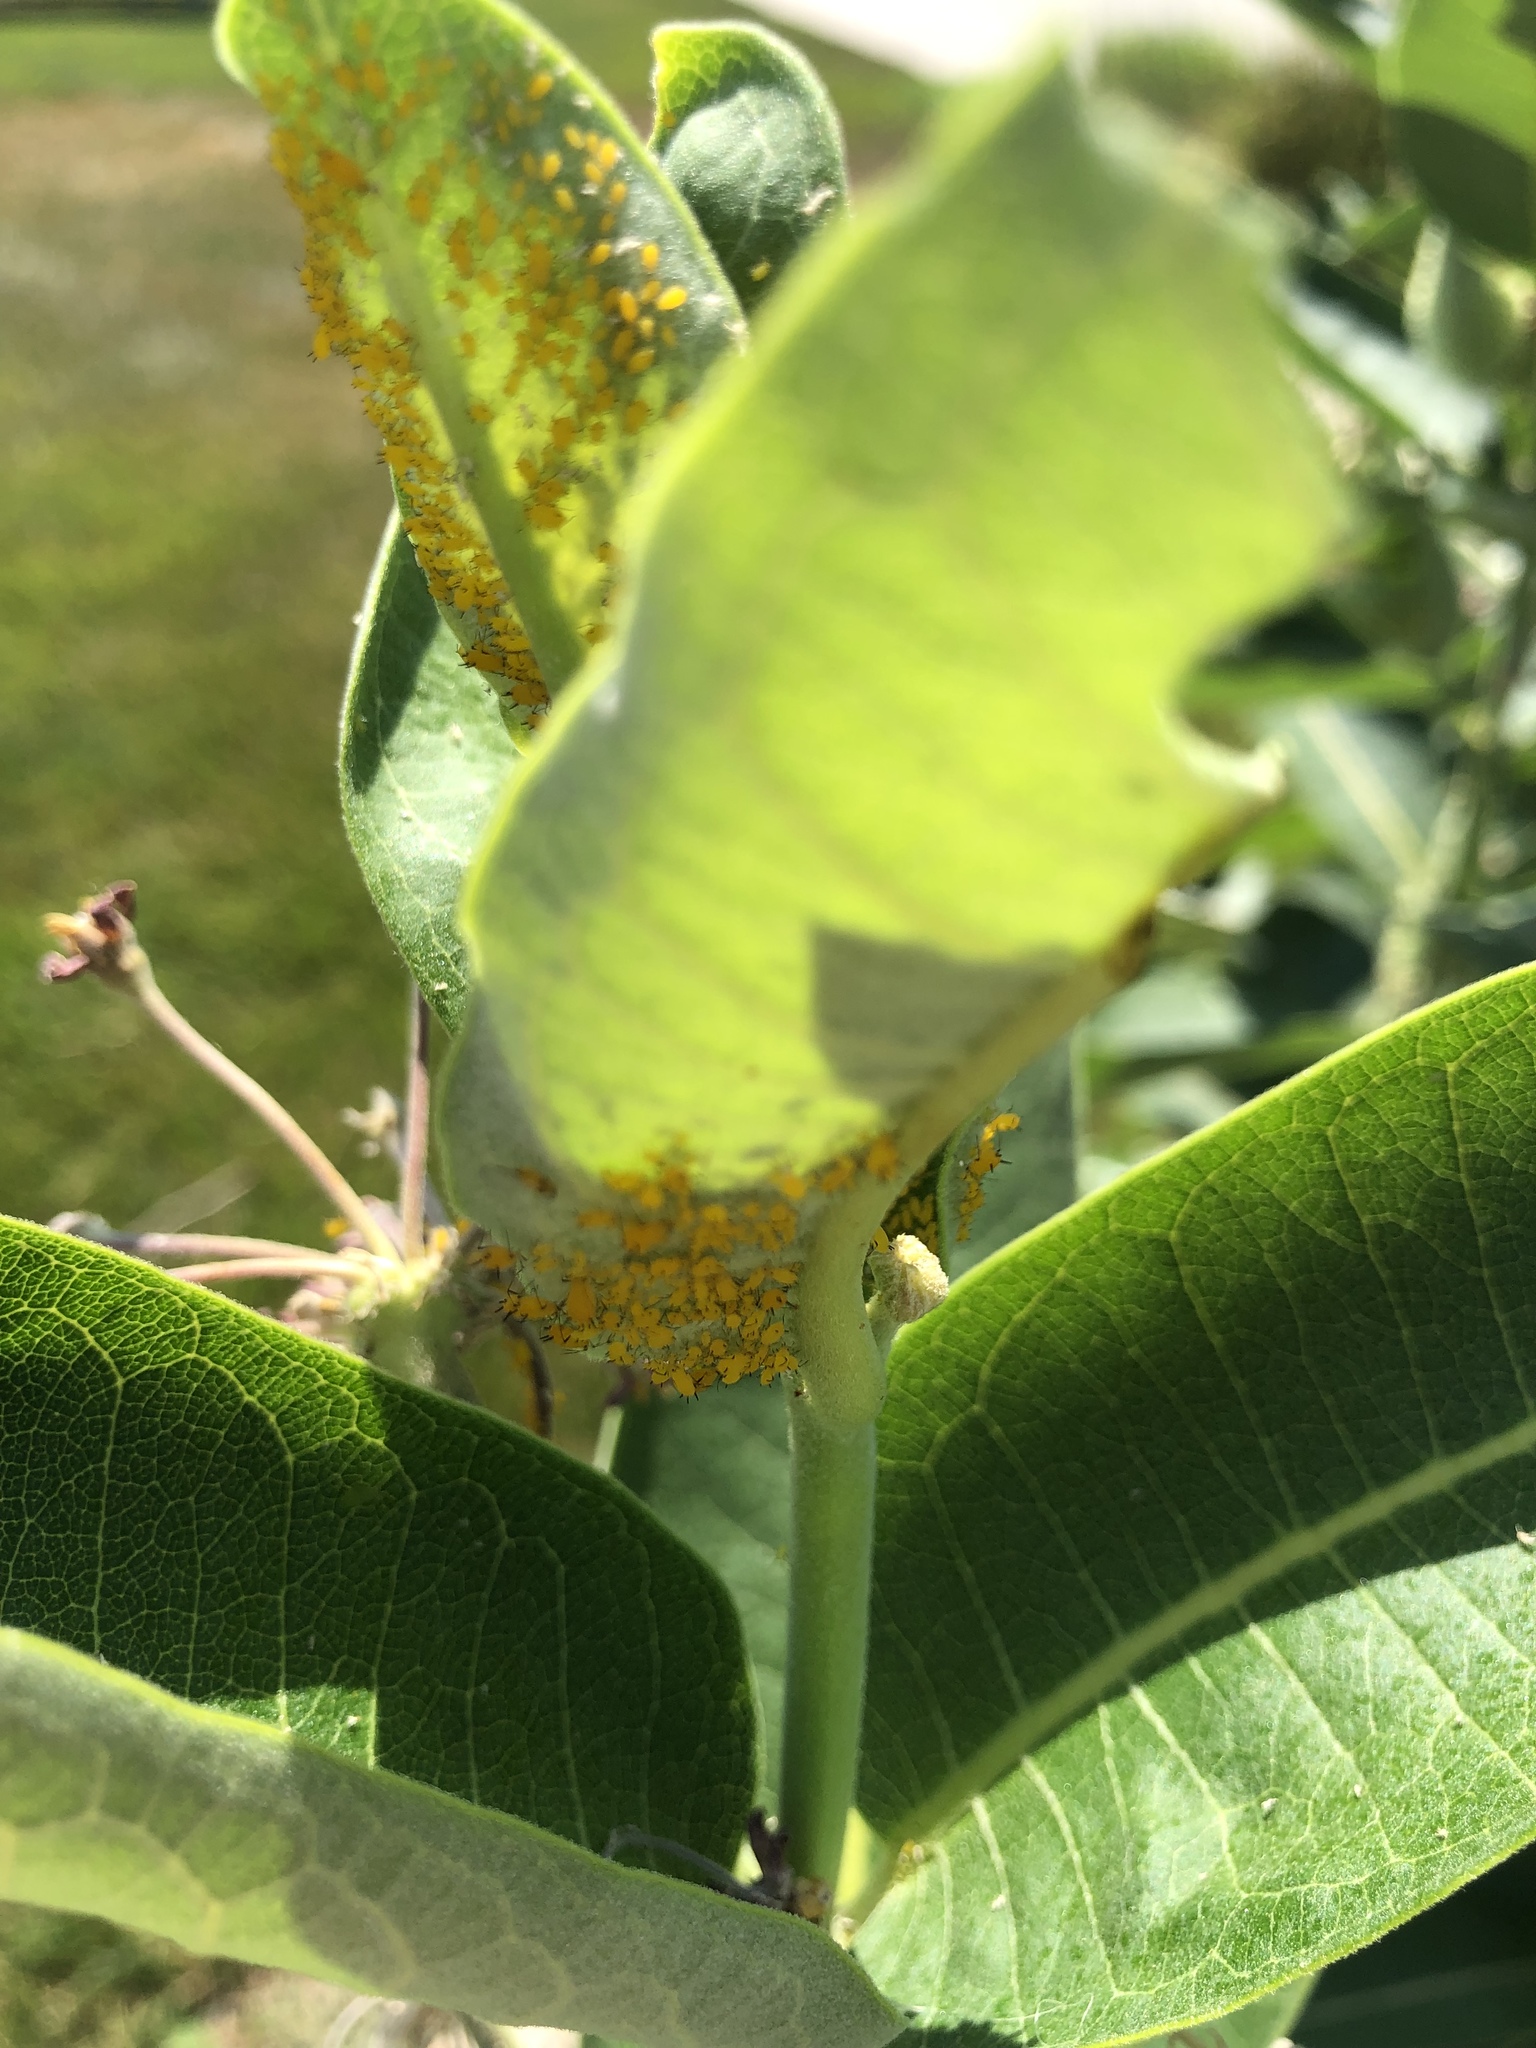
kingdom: Animalia
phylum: Arthropoda
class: Insecta
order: Hemiptera
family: Aphididae
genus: Aphis
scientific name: Aphis nerii
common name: Oleander aphid
